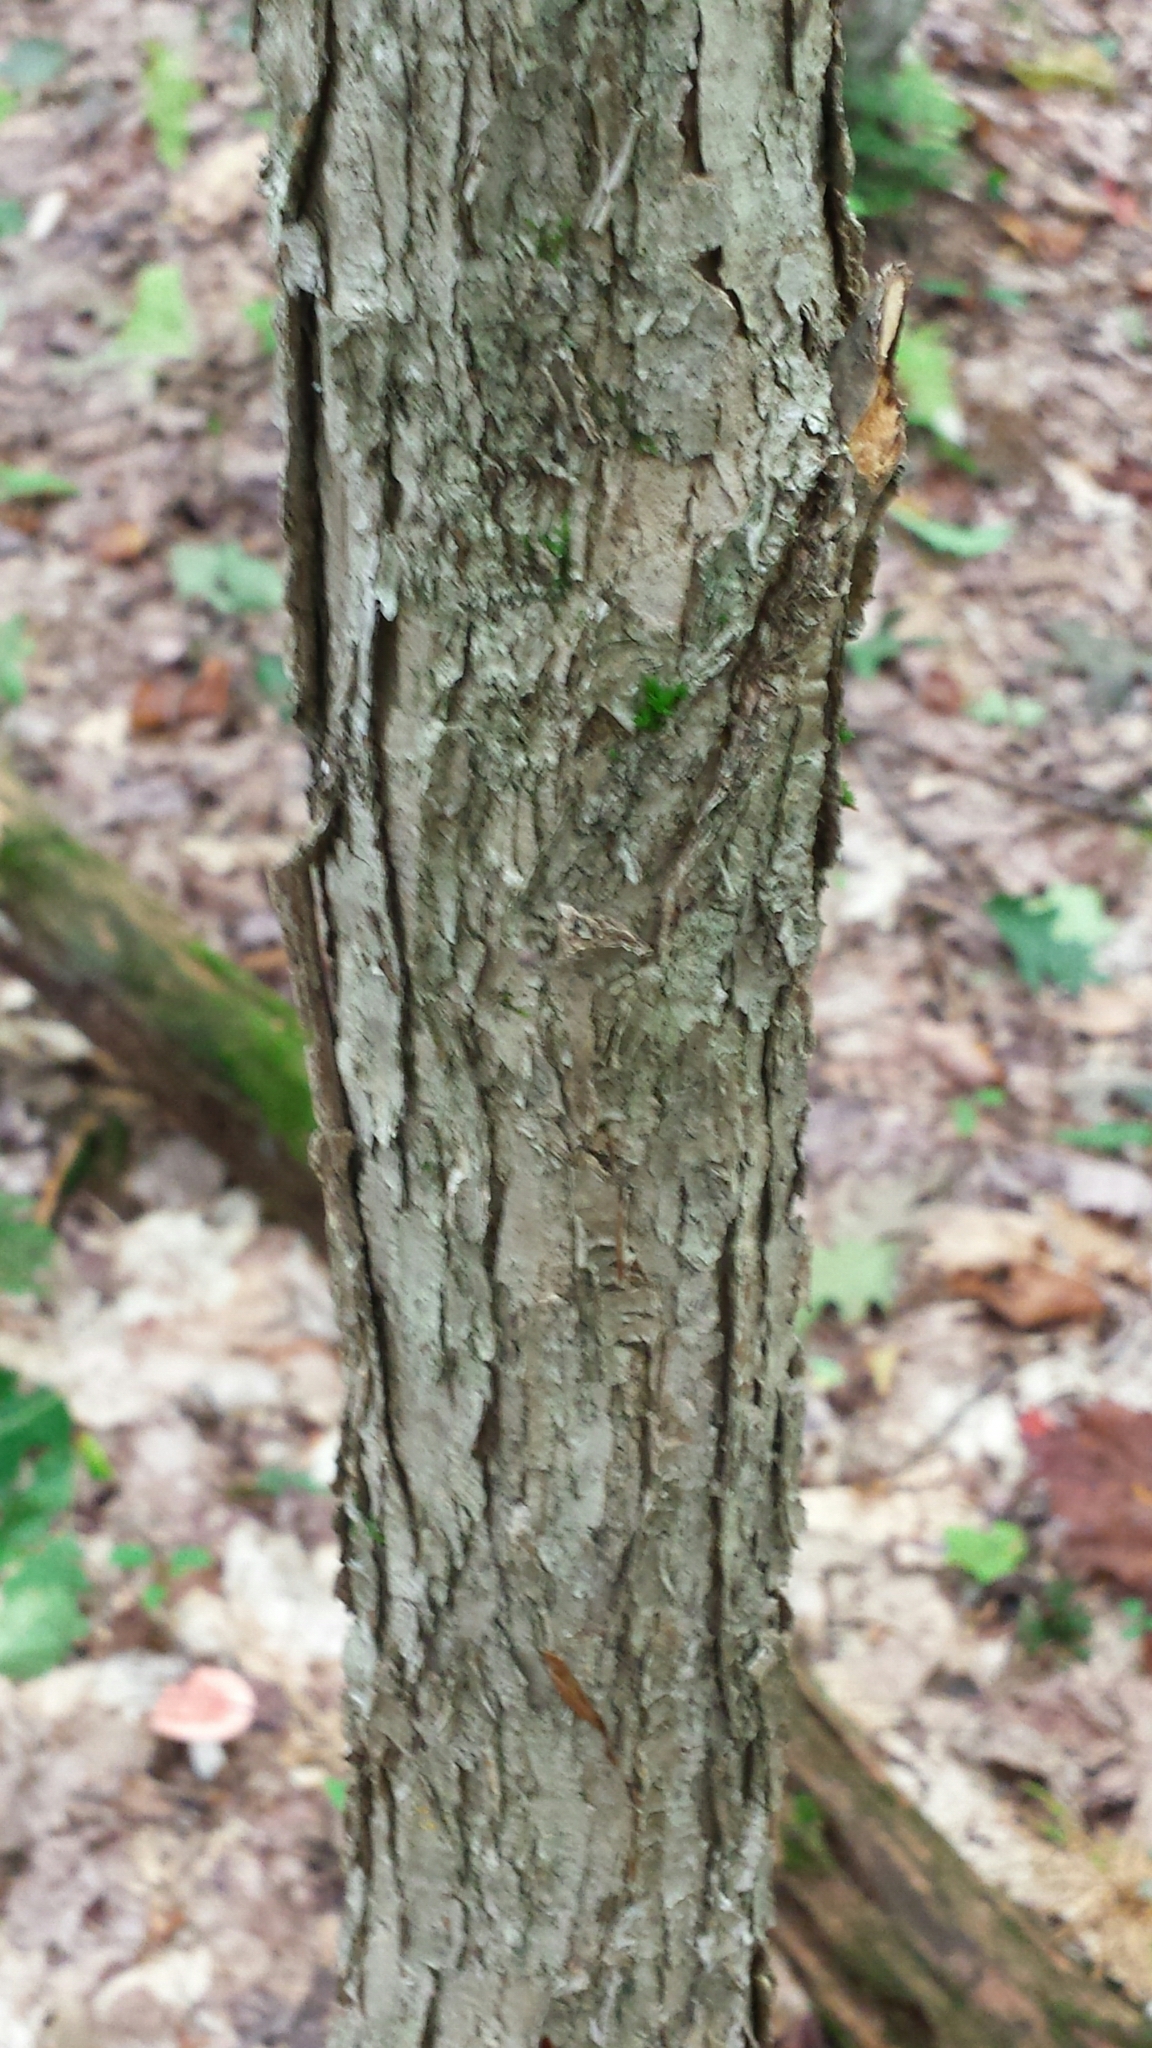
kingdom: Plantae
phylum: Tracheophyta
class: Magnoliopsida
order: Fagales
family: Fagaceae
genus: Quercus
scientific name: Quercus alba
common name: White oak
